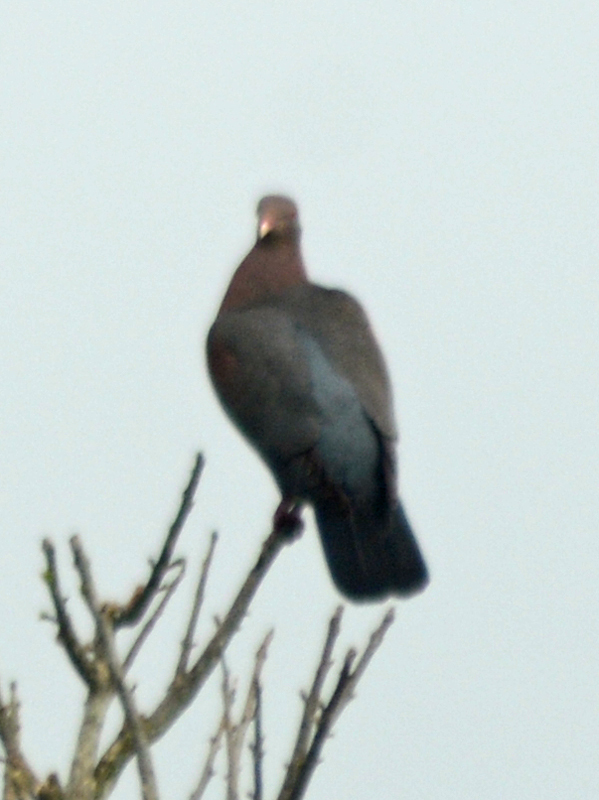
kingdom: Animalia
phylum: Chordata
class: Aves
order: Columbiformes
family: Columbidae
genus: Patagioenas
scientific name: Patagioenas flavirostris
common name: Red-billed pigeon
